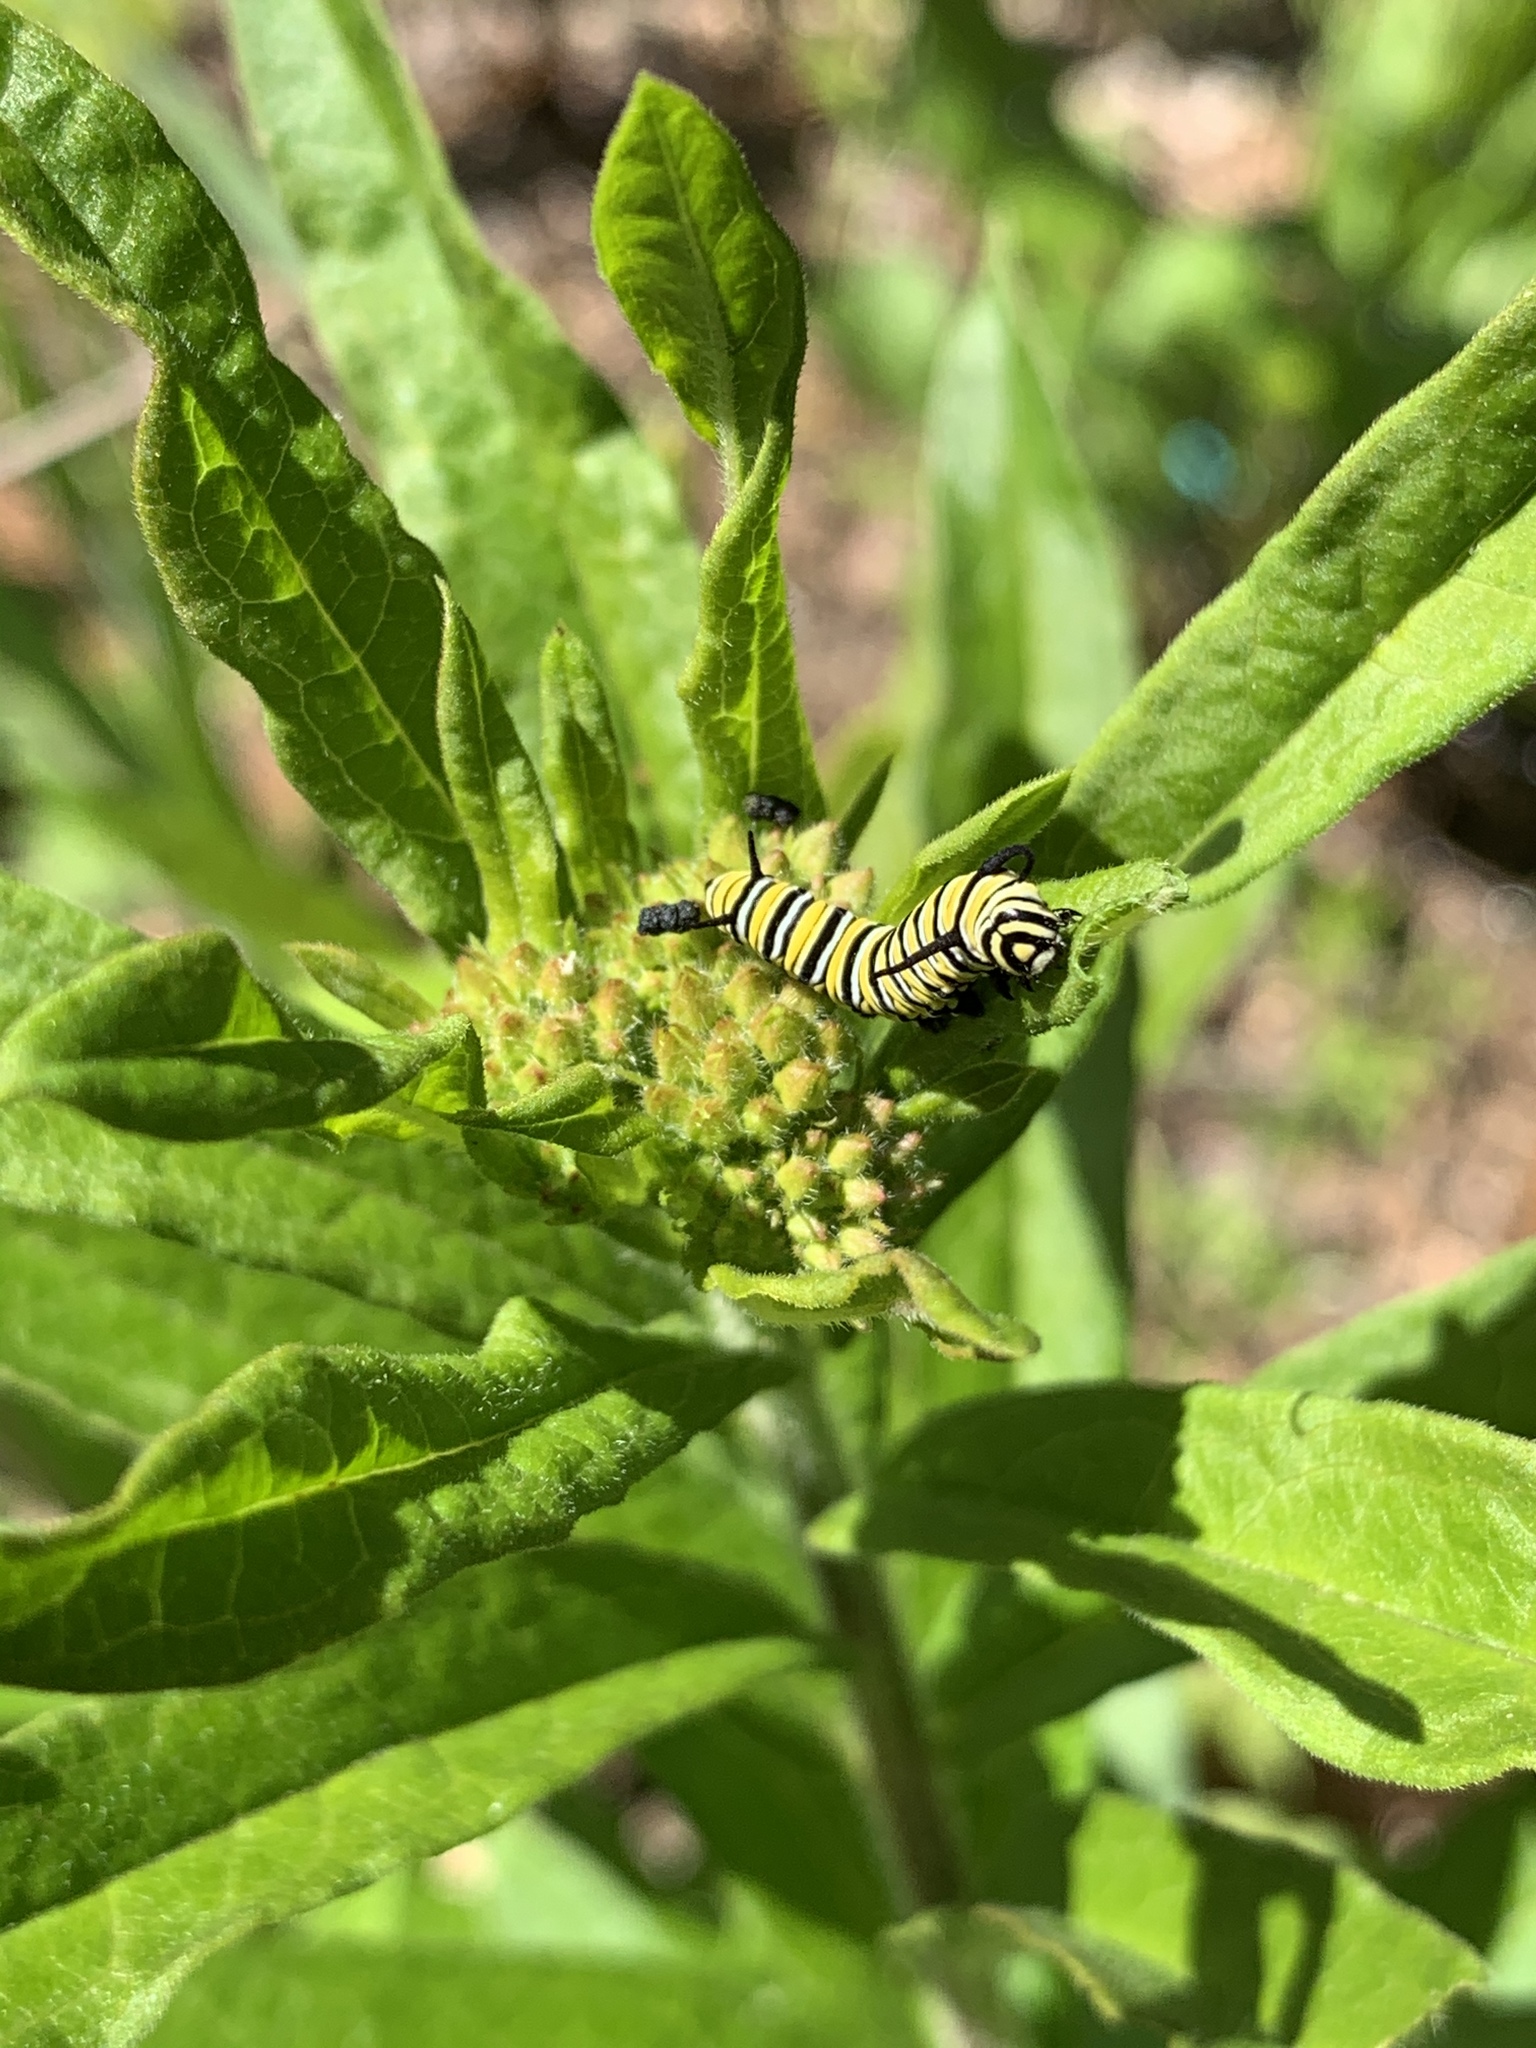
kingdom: Animalia
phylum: Arthropoda
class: Insecta
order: Lepidoptera
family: Nymphalidae
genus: Danaus
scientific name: Danaus plexippus
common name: Monarch
